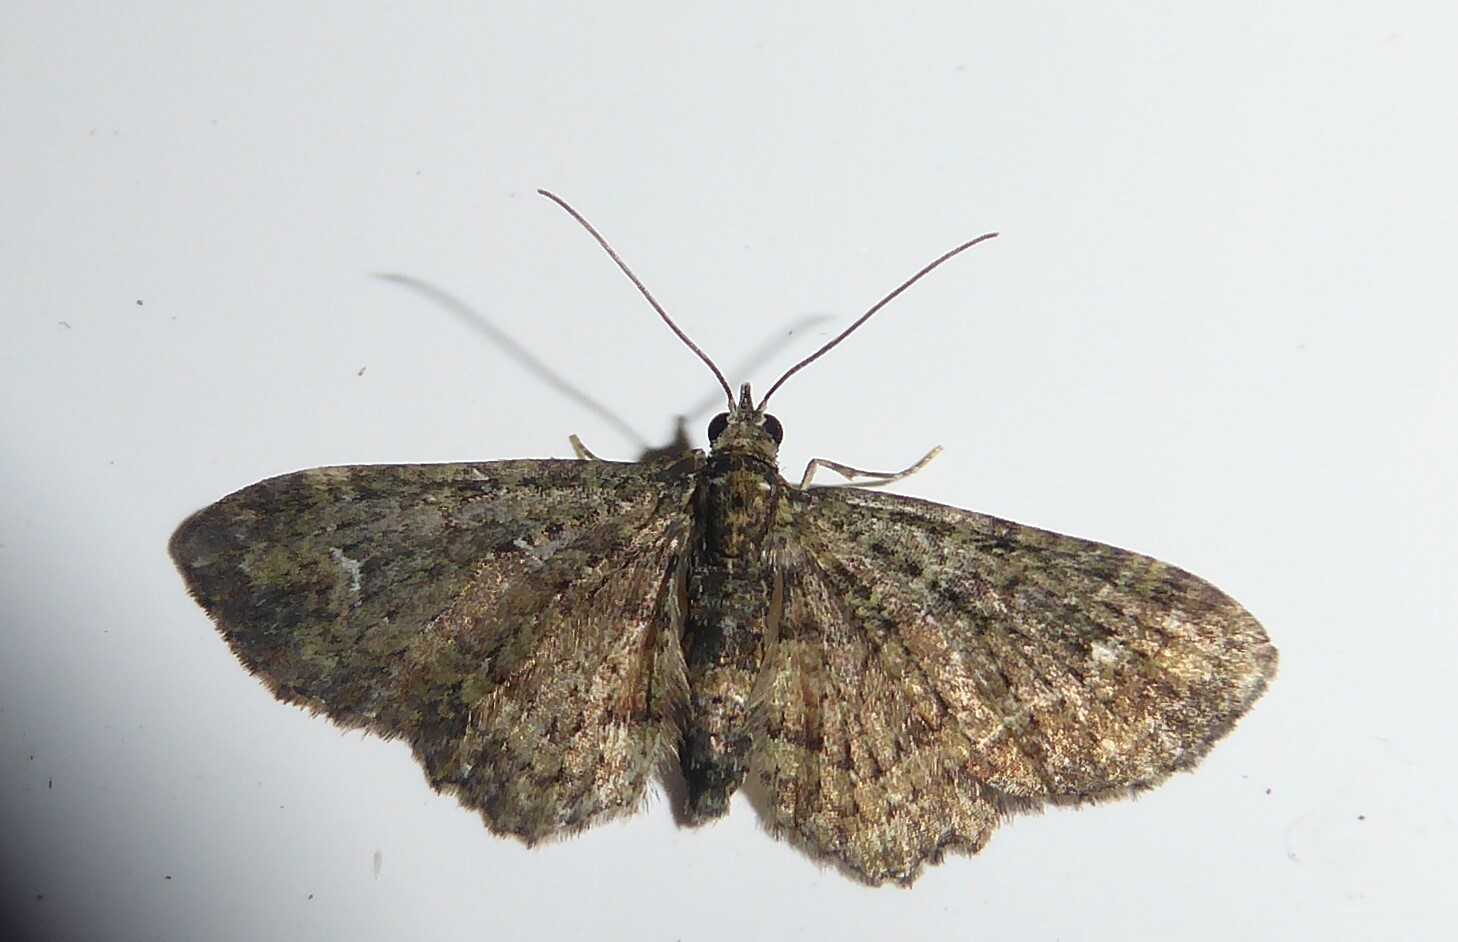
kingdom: Animalia
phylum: Arthropoda
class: Insecta
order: Lepidoptera
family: Geometridae
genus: Pasiphilodes
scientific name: Pasiphilodes testulata
